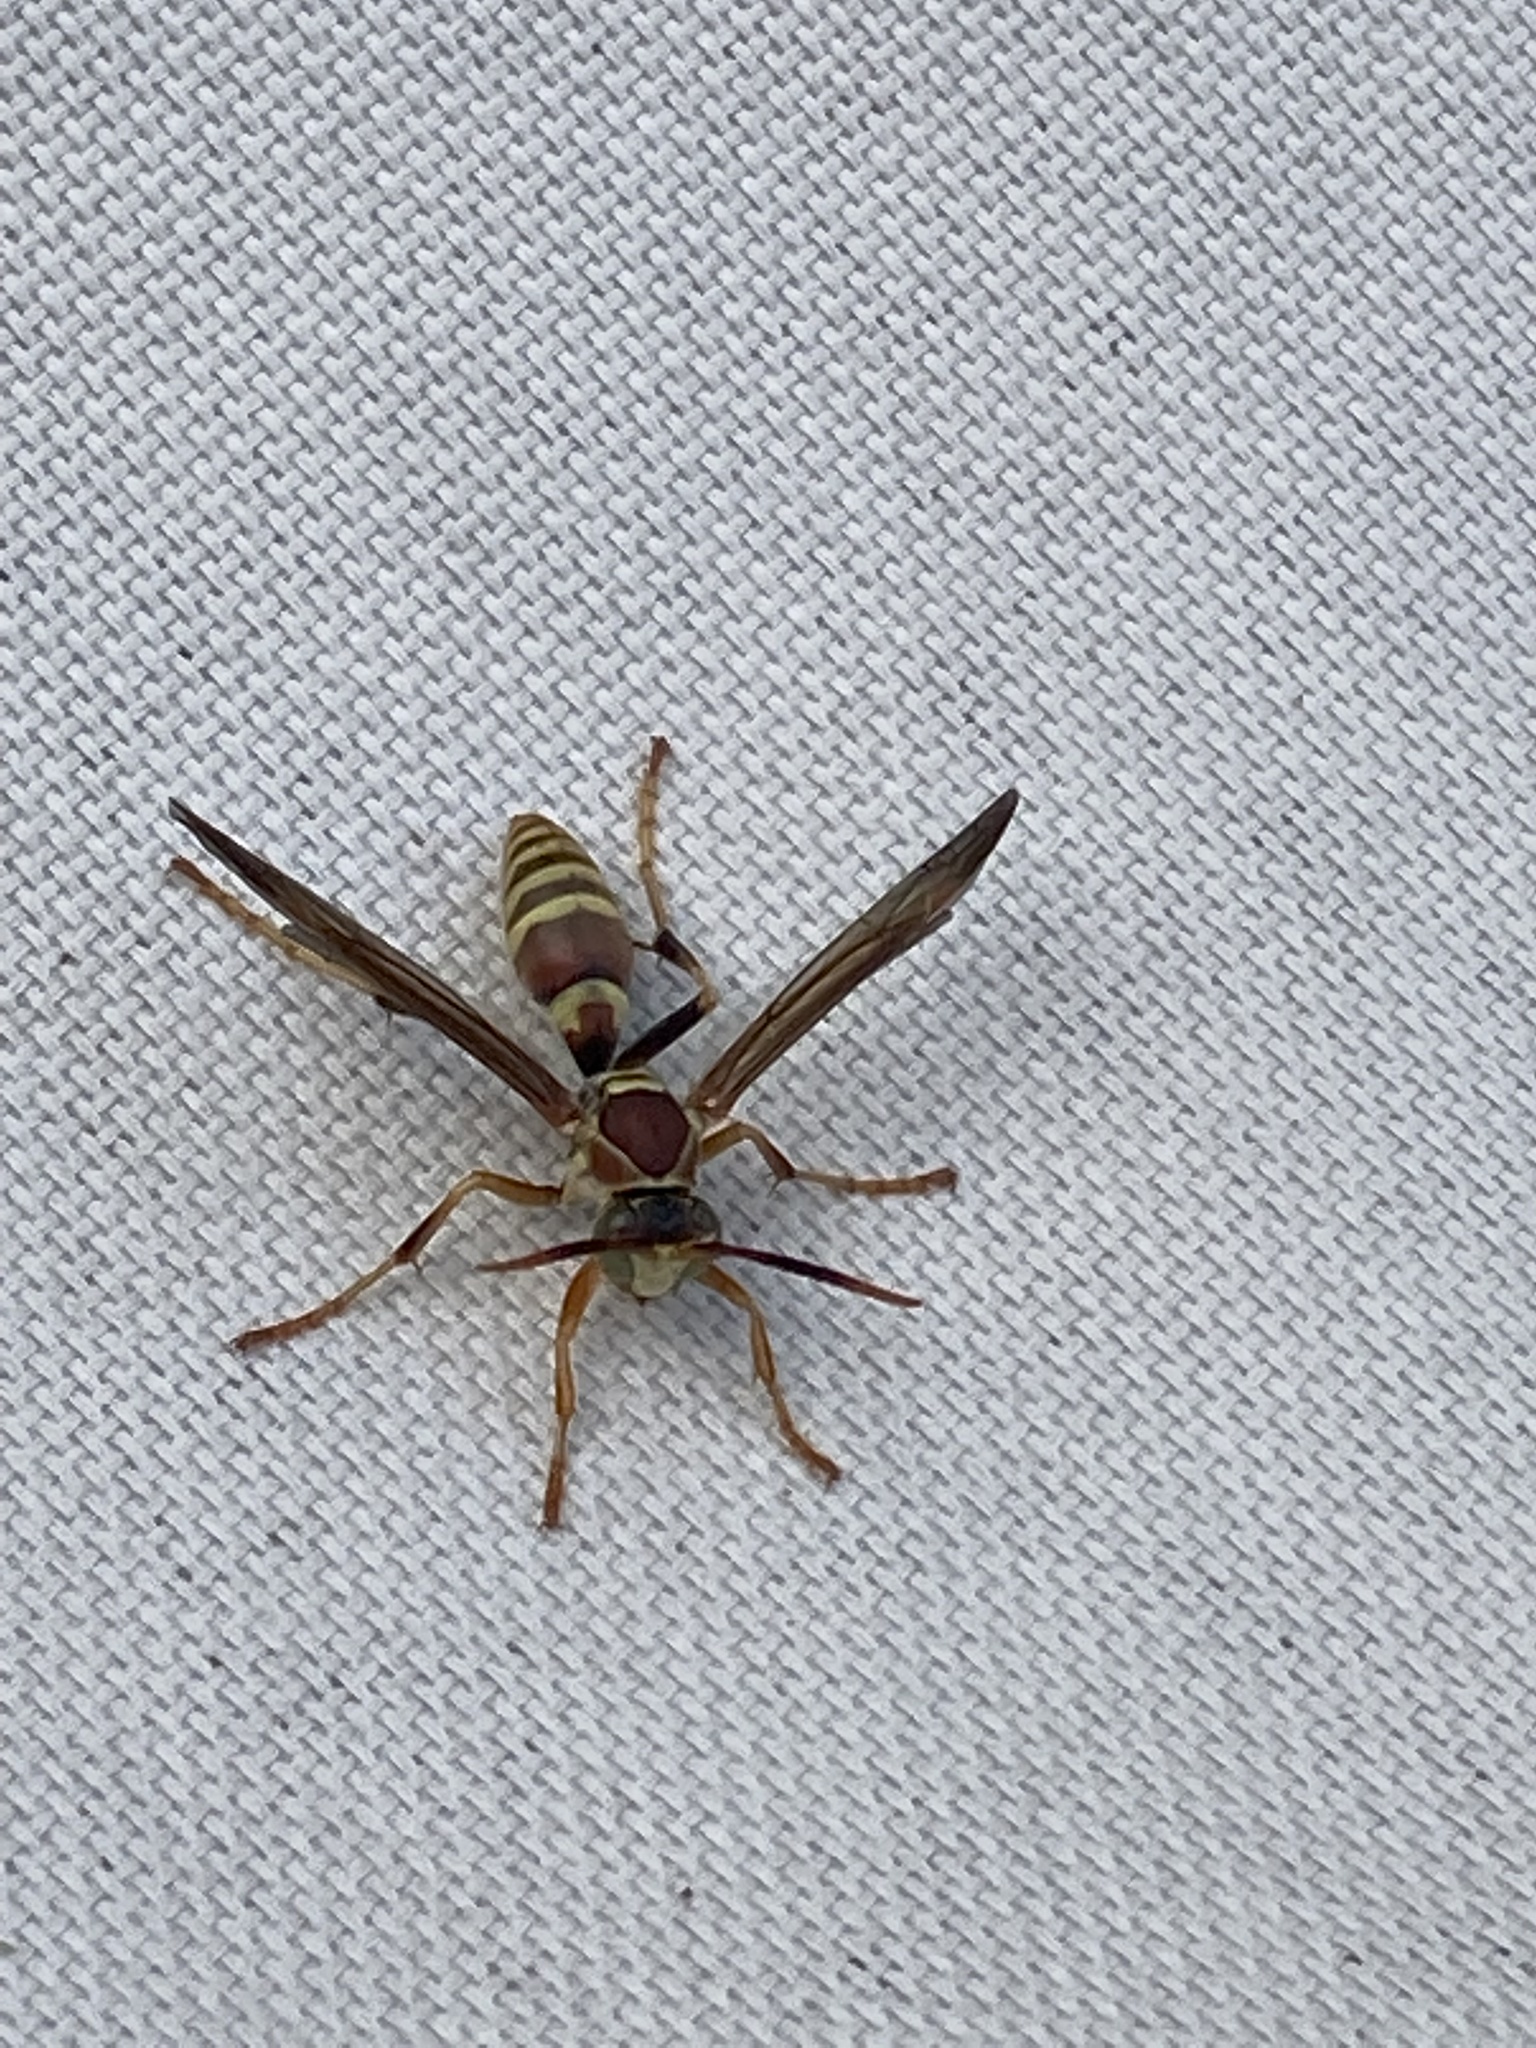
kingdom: Animalia
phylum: Arthropoda
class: Insecta
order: Hymenoptera
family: Eumenidae
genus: Polistes
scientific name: Polistes exclamans
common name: Paper wasp
